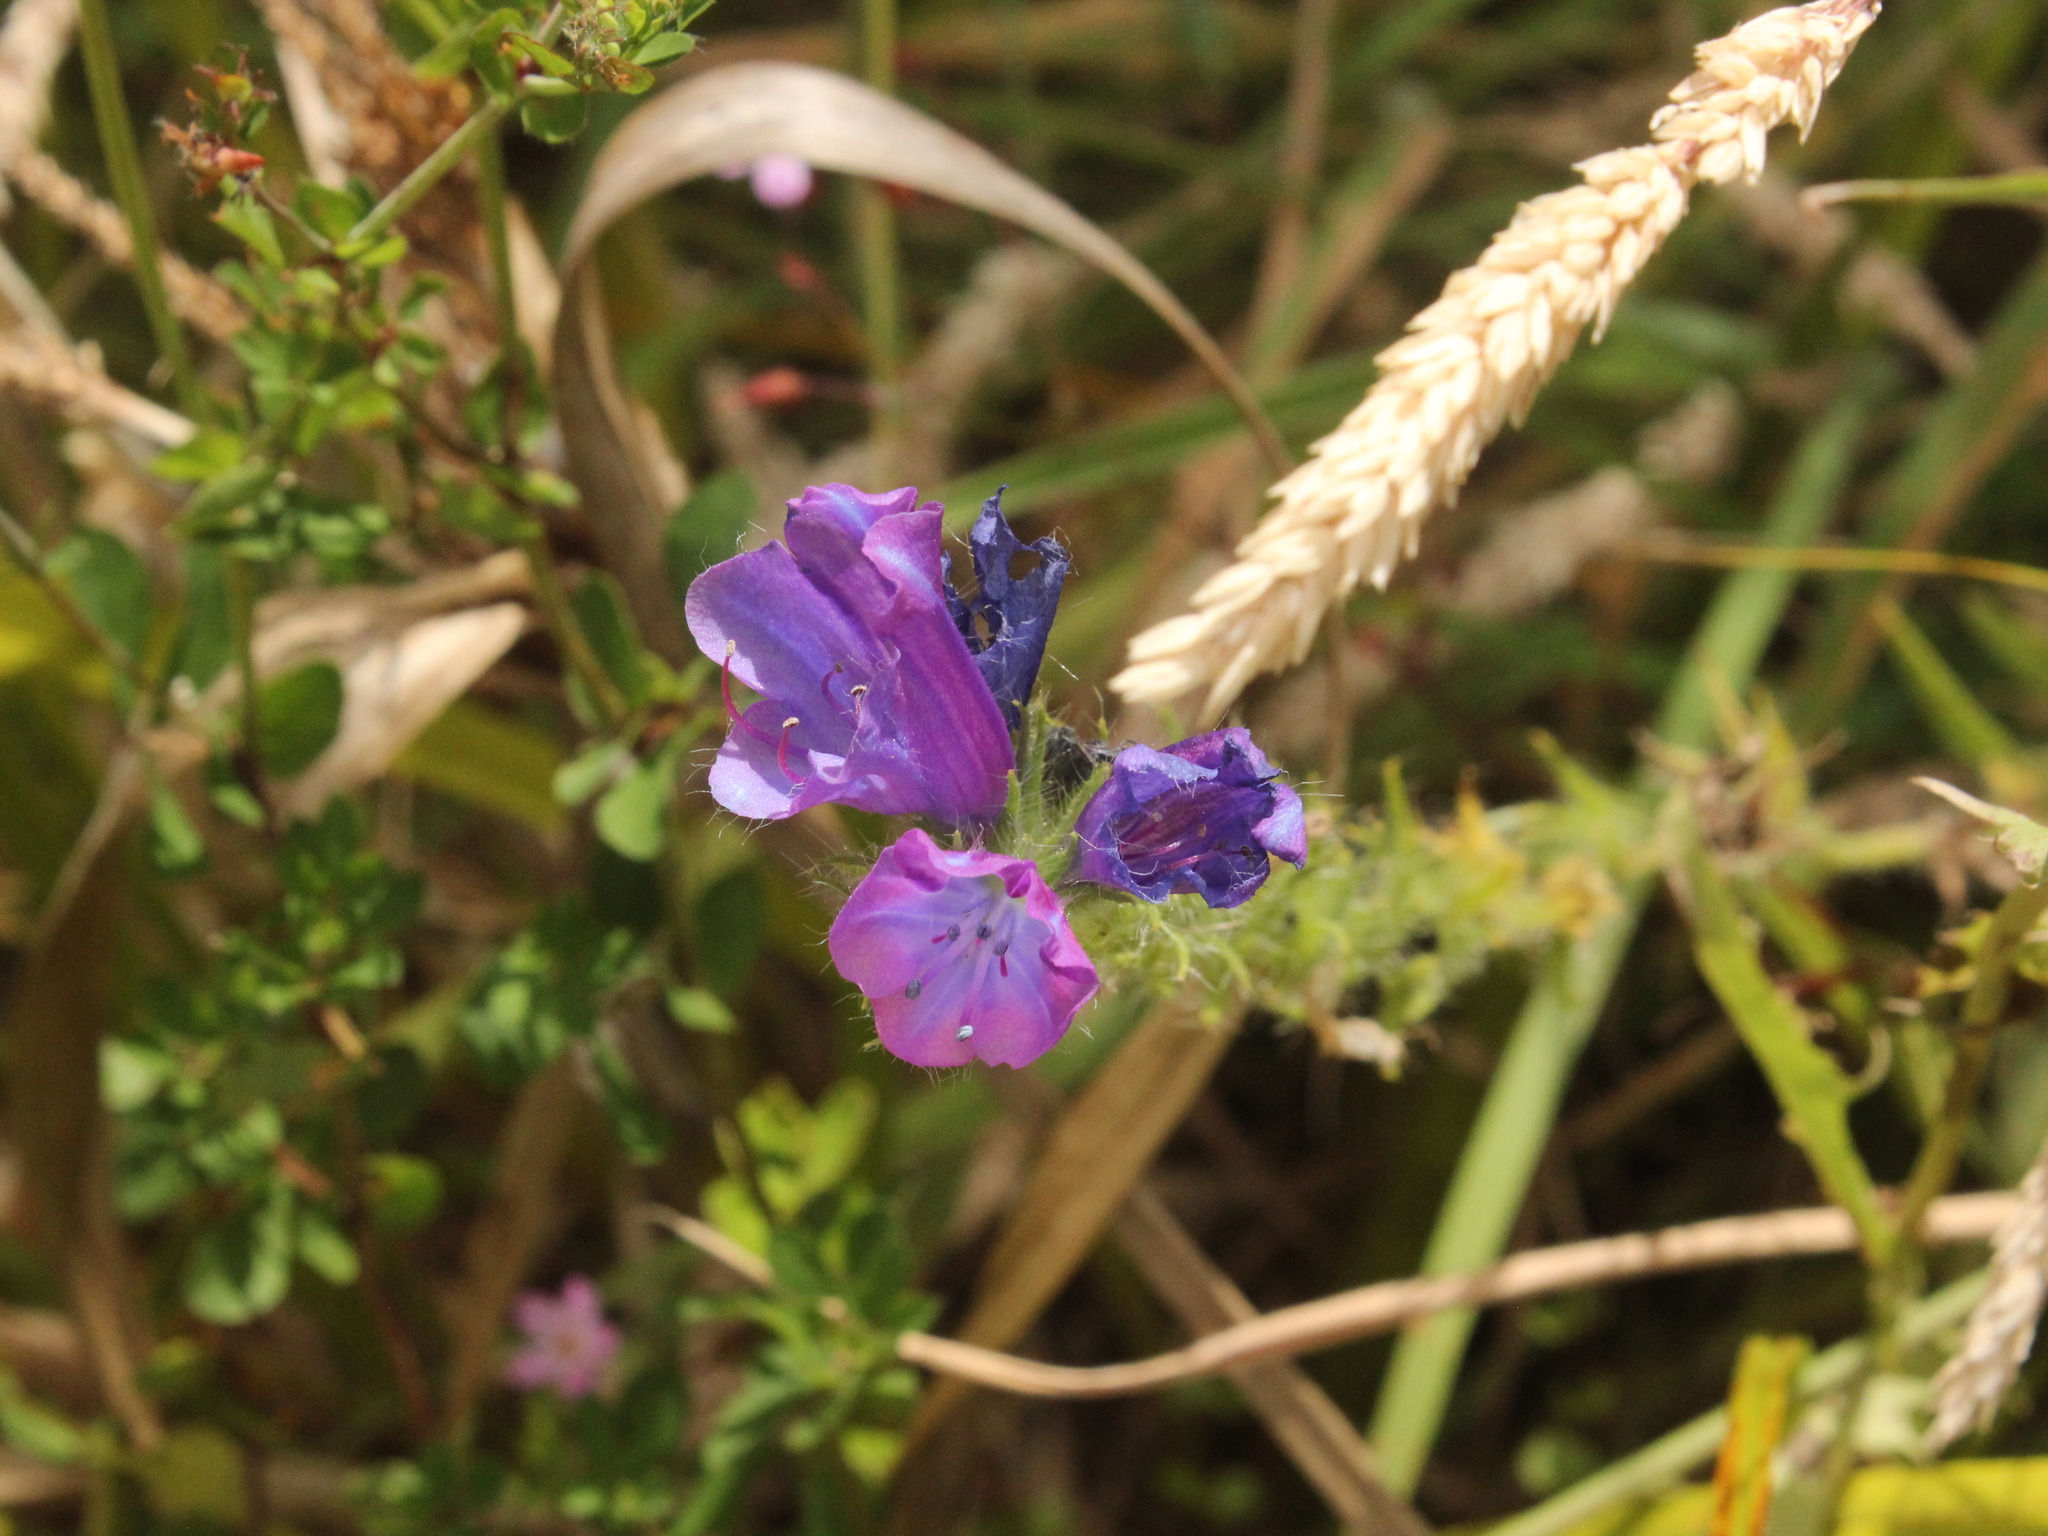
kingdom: Plantae
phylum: Tracheophyta
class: Magnoliopsida
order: Boraginales
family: Boraginaceae
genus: Echium
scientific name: Echium vulgare
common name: Common viper's bugloss
